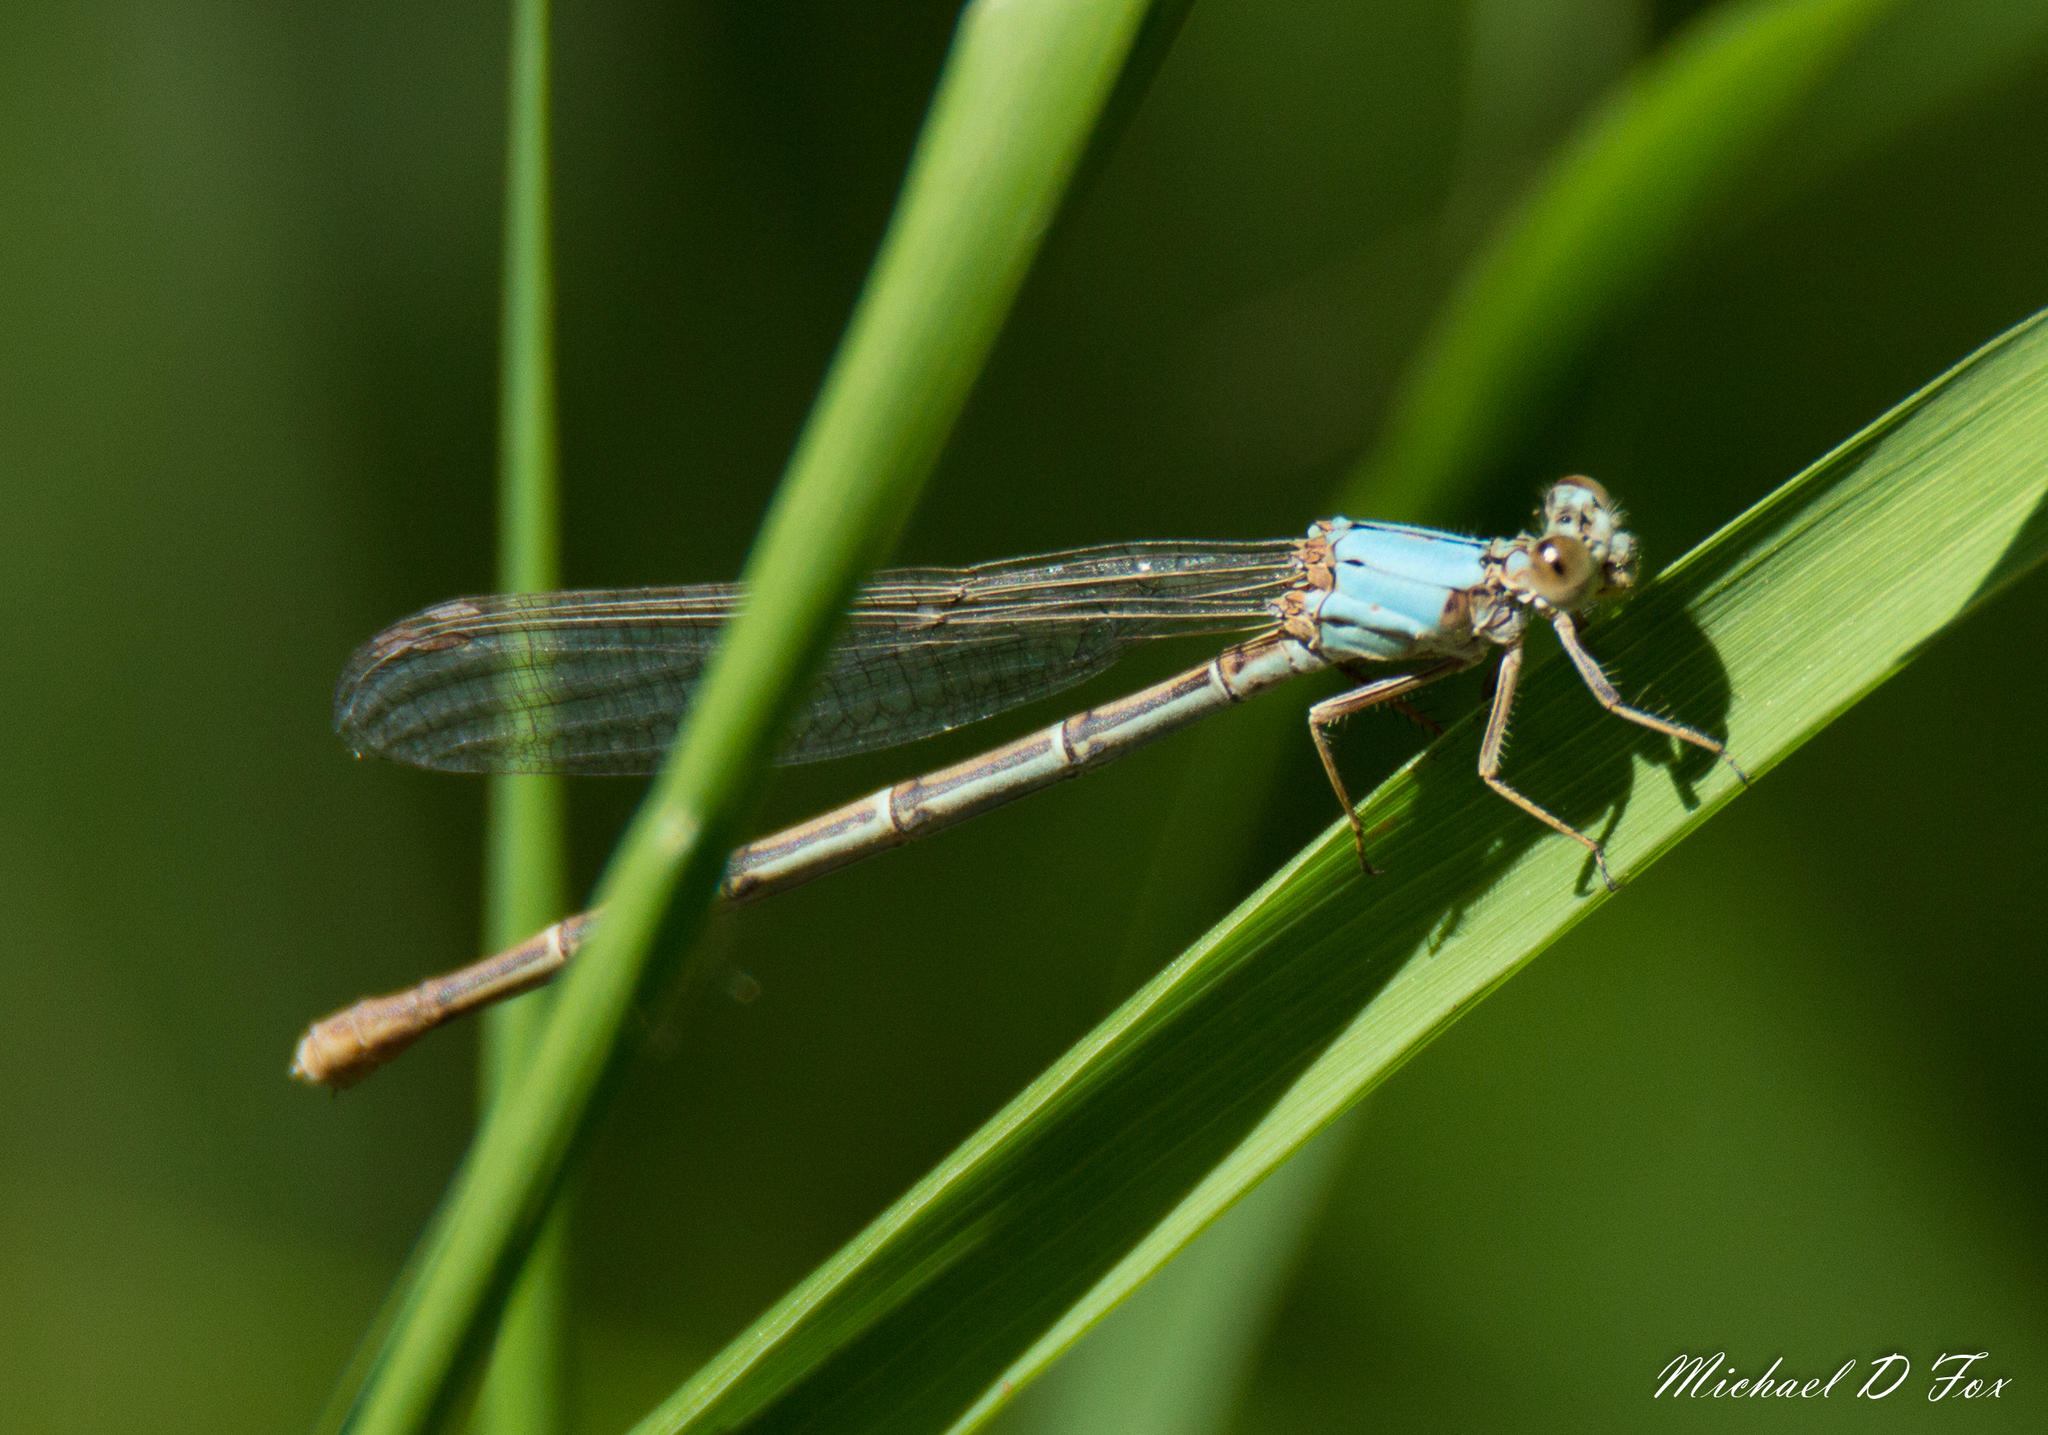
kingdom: Animalia
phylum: Arthropoda
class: Insecta
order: Odonata
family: Coenagrionidae
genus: Argia
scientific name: Argia moesta
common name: Powdered dancer
